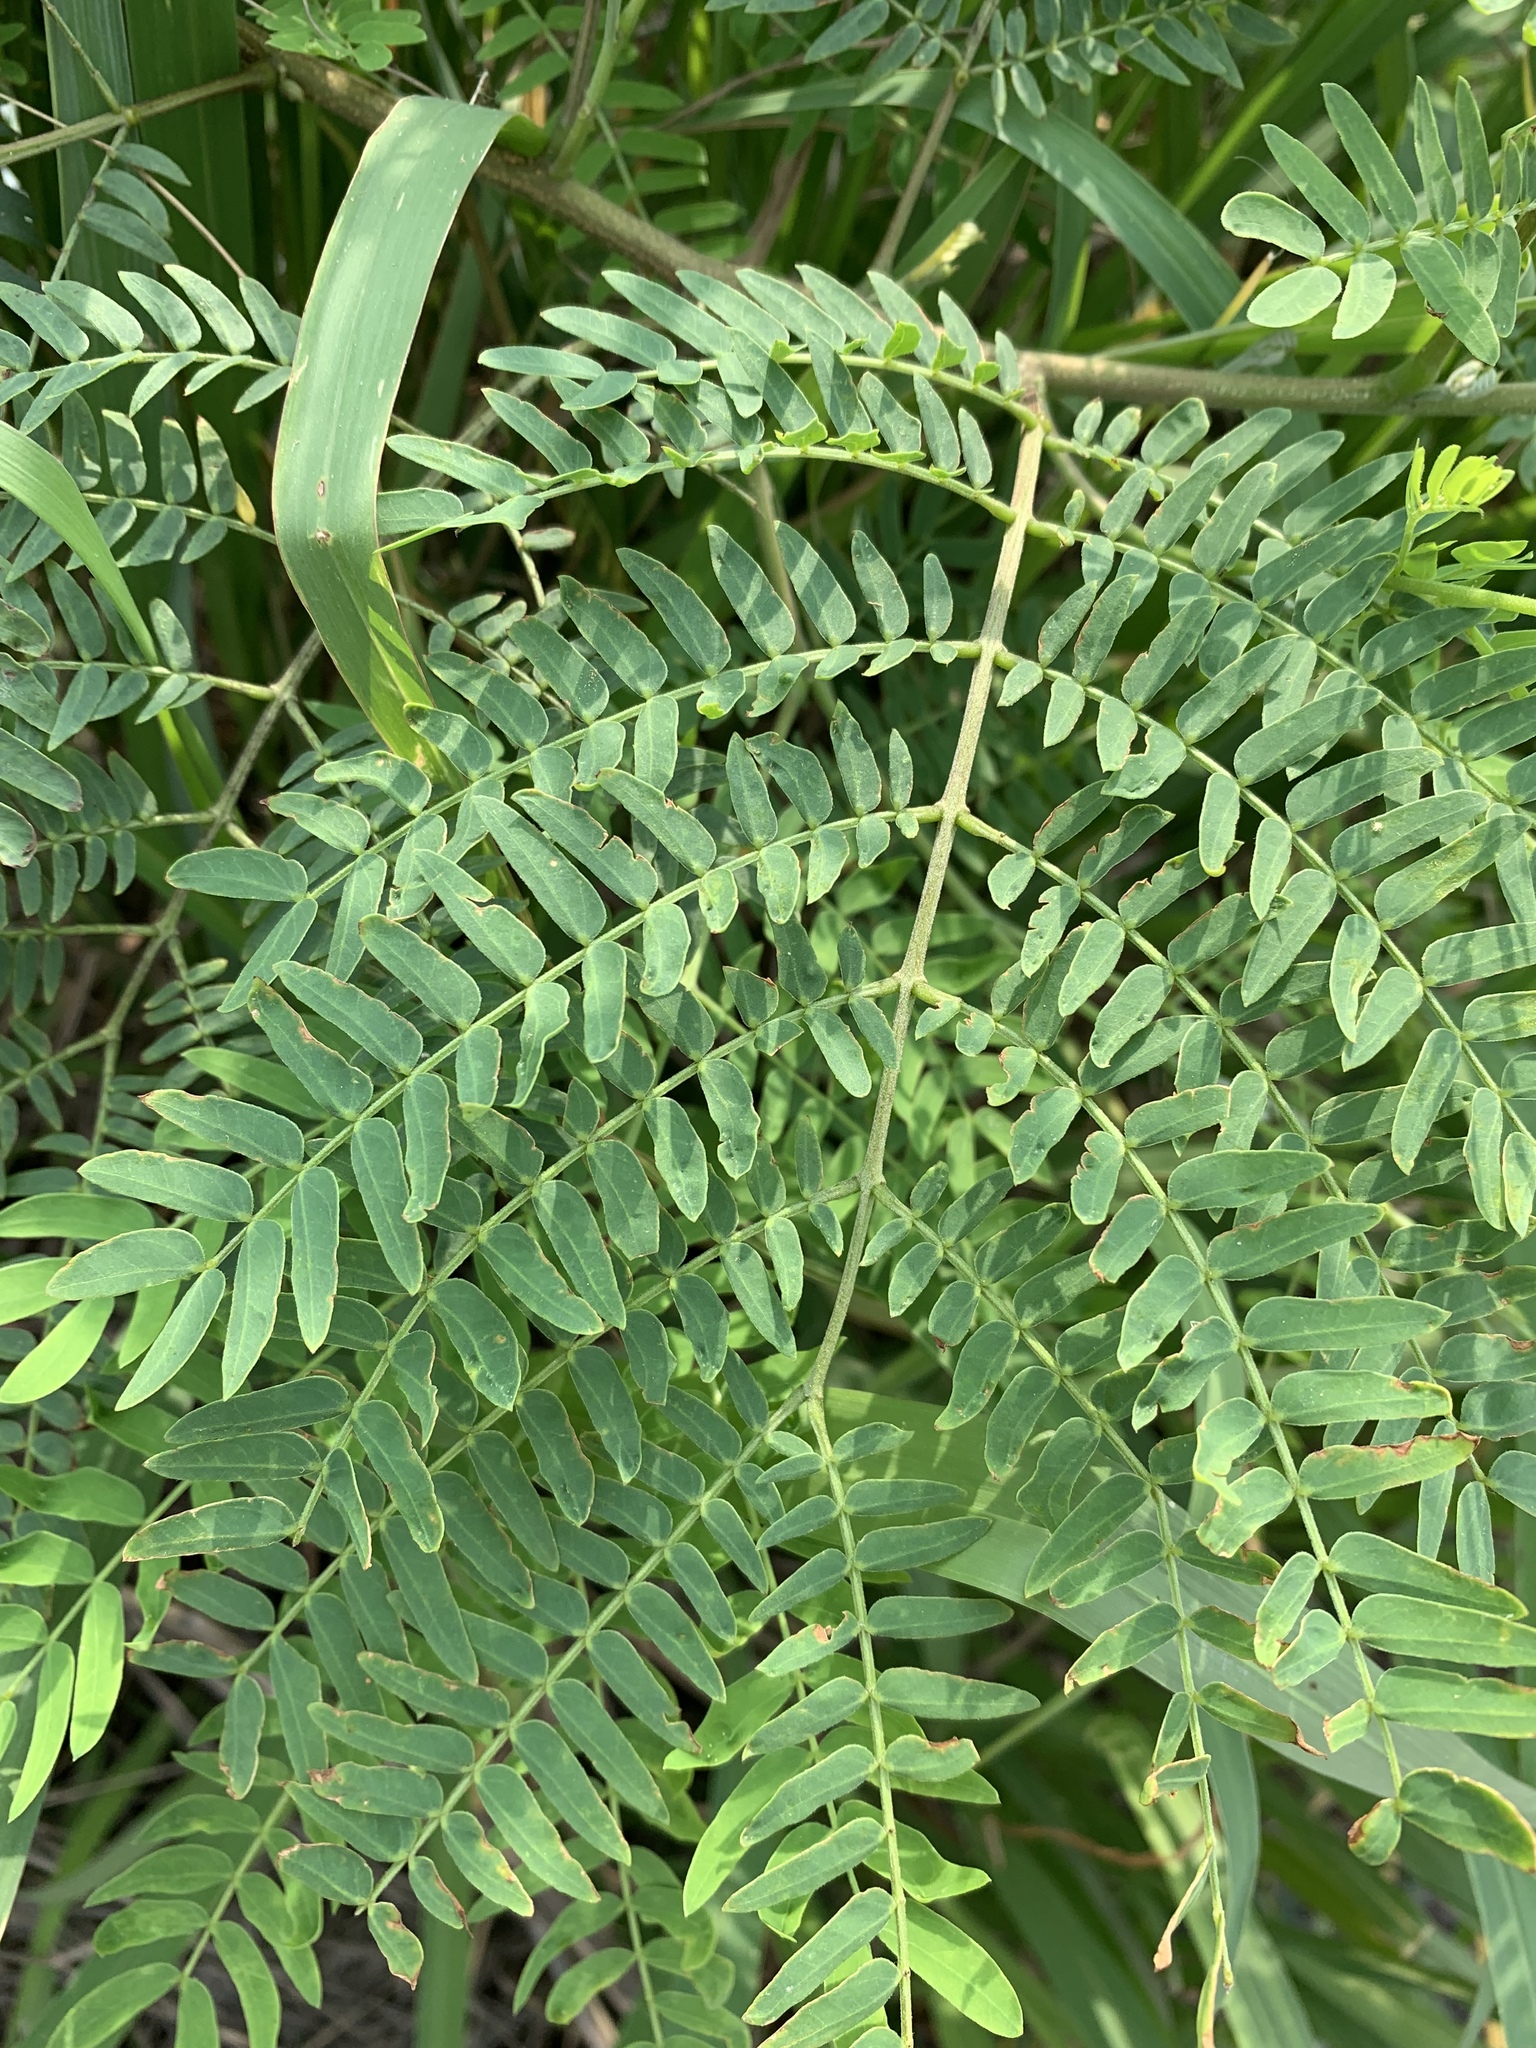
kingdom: Plantae
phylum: Tracheophyta
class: Magnoliopsida
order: Fabales
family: Fabaceae
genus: Leucaena
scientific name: Leucaena leucocephala
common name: White leadtree
